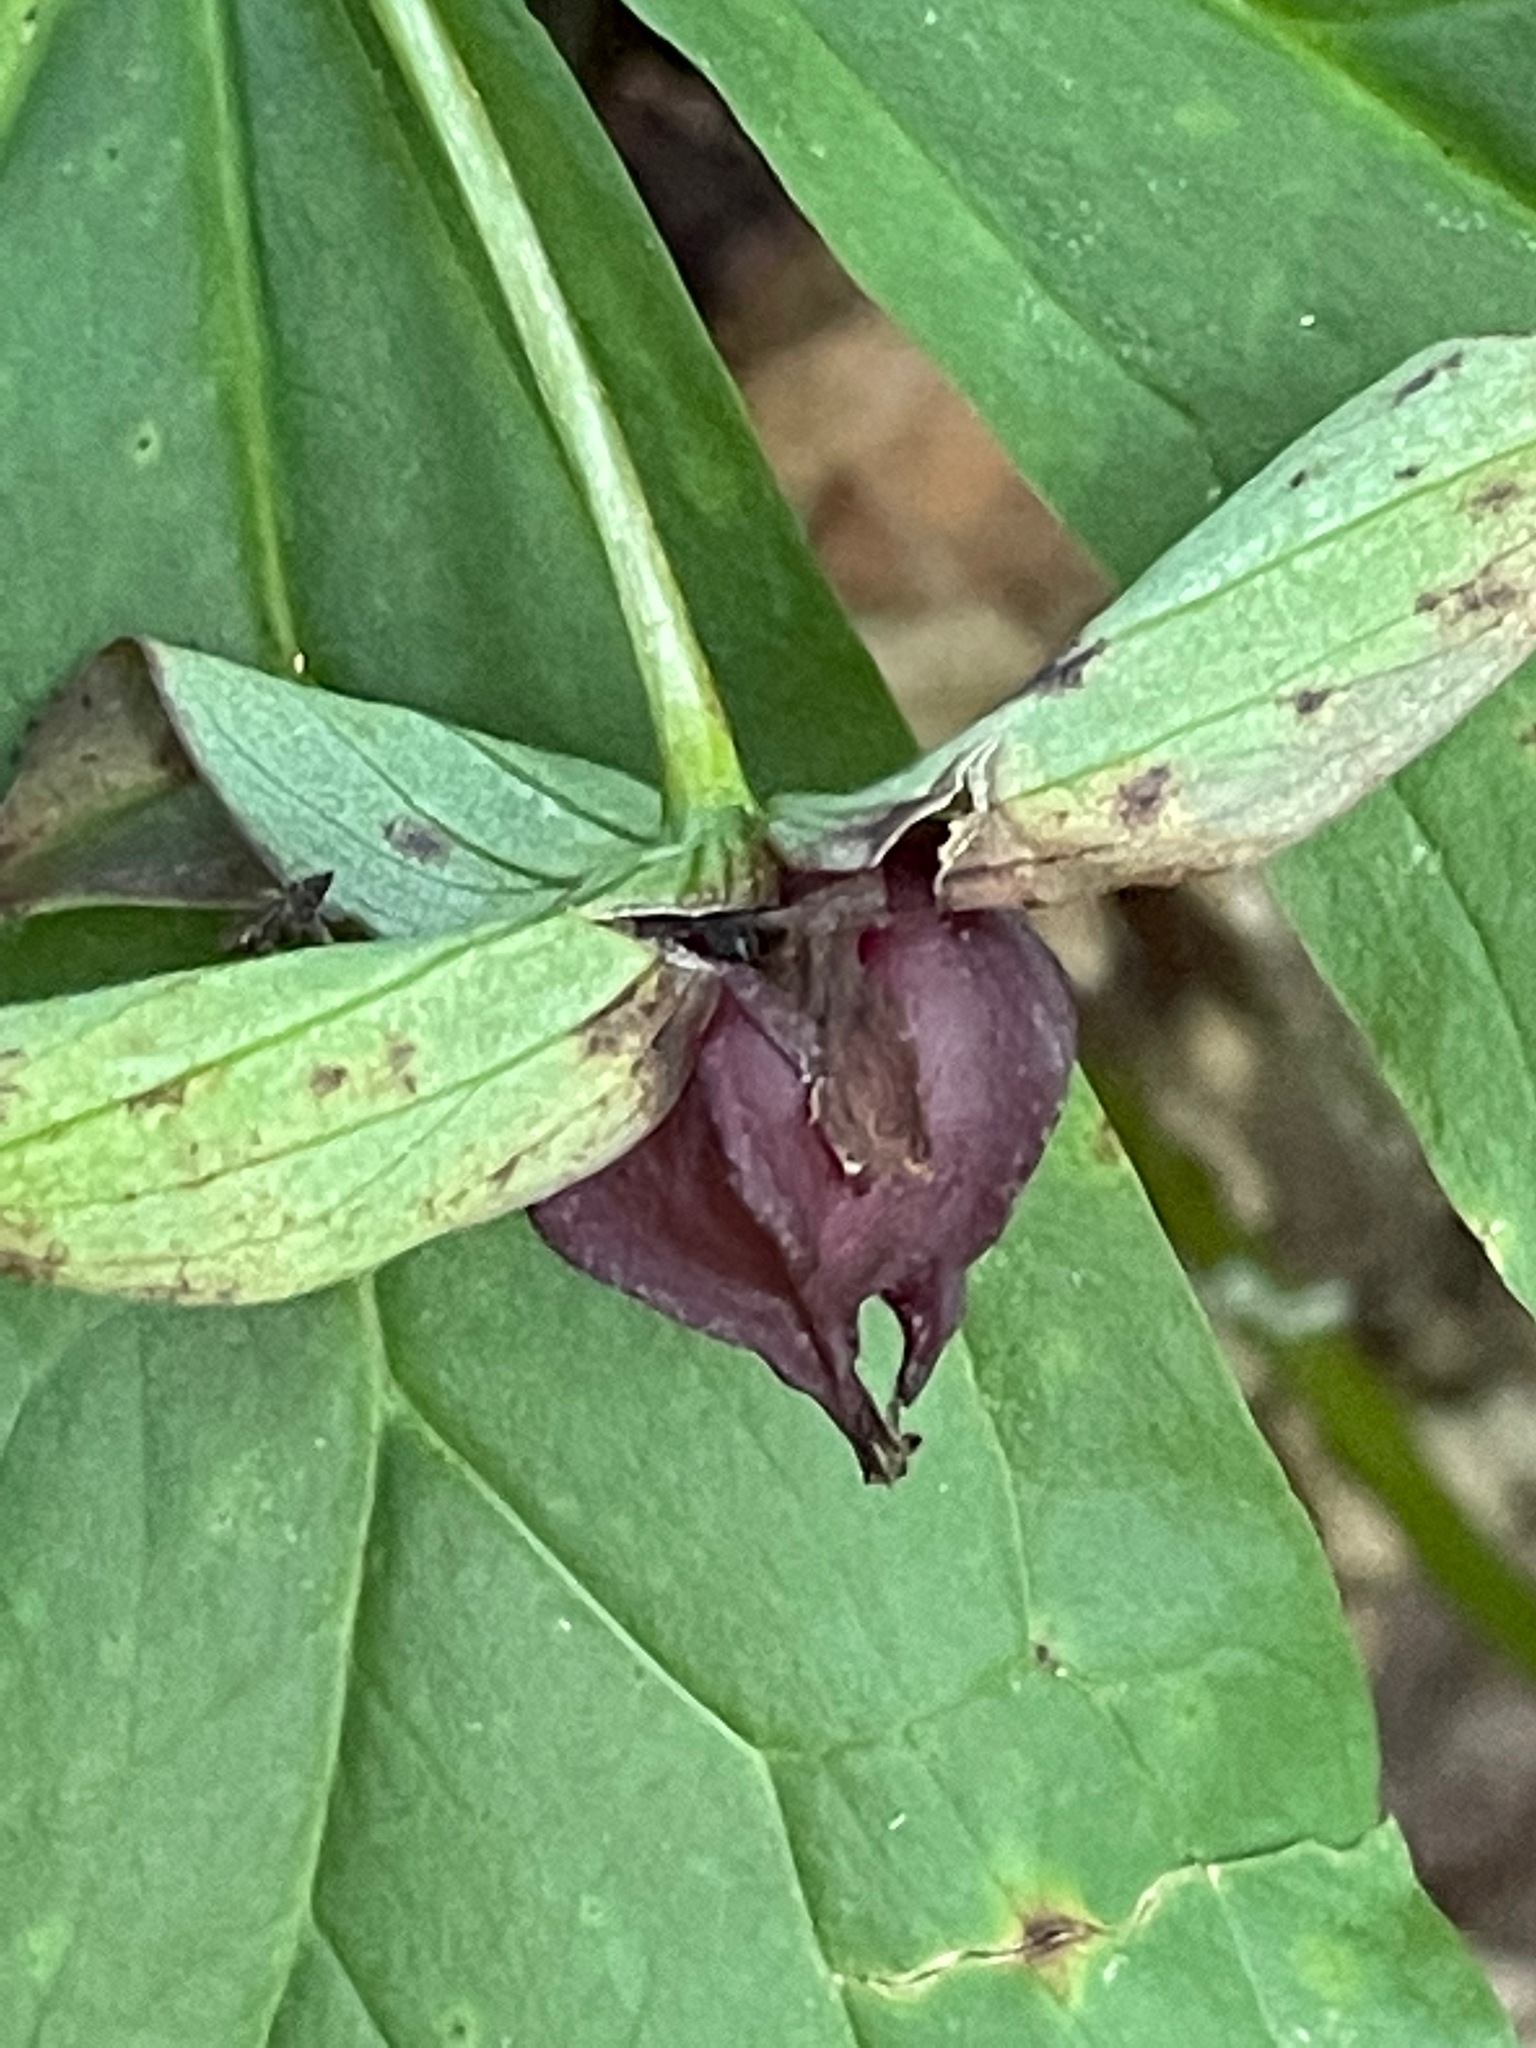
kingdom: Plantae
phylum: Tracheophyta
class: Liliopsida
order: Liliales
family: Melanthiaceae
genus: Trillium
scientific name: Trillium erectum
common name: Purple trillium
